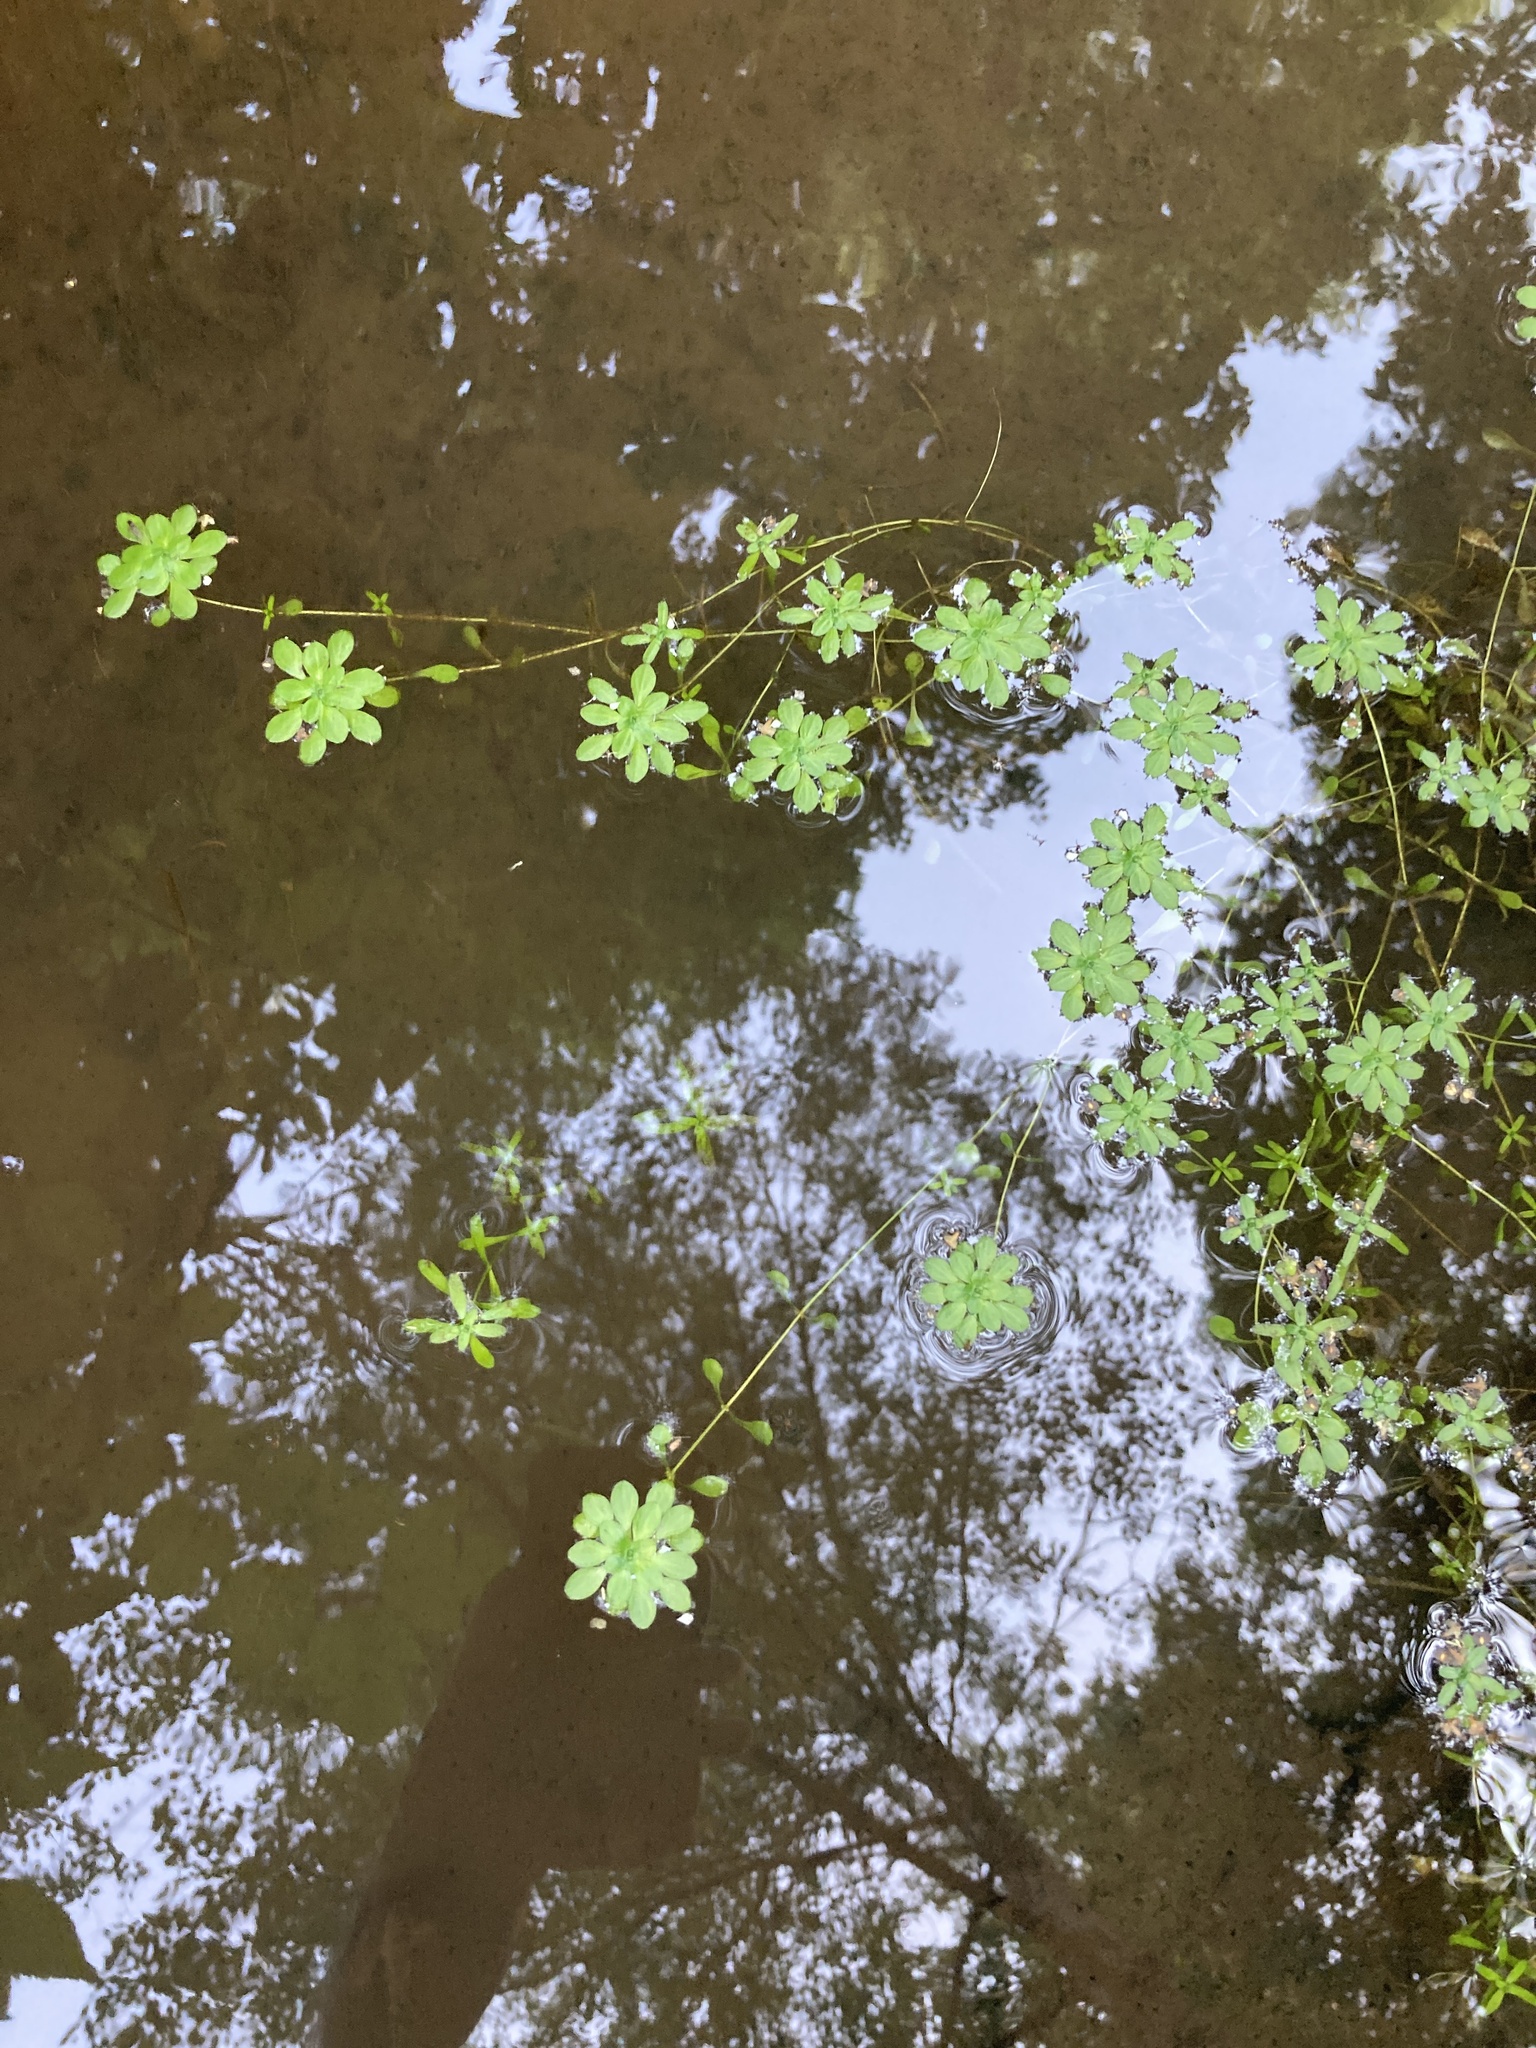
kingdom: Plantae
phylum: Tracheophyta
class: Magnoliopsida
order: Lamiales
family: Plantaginaceae
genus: Callitriche
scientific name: Callitriche
